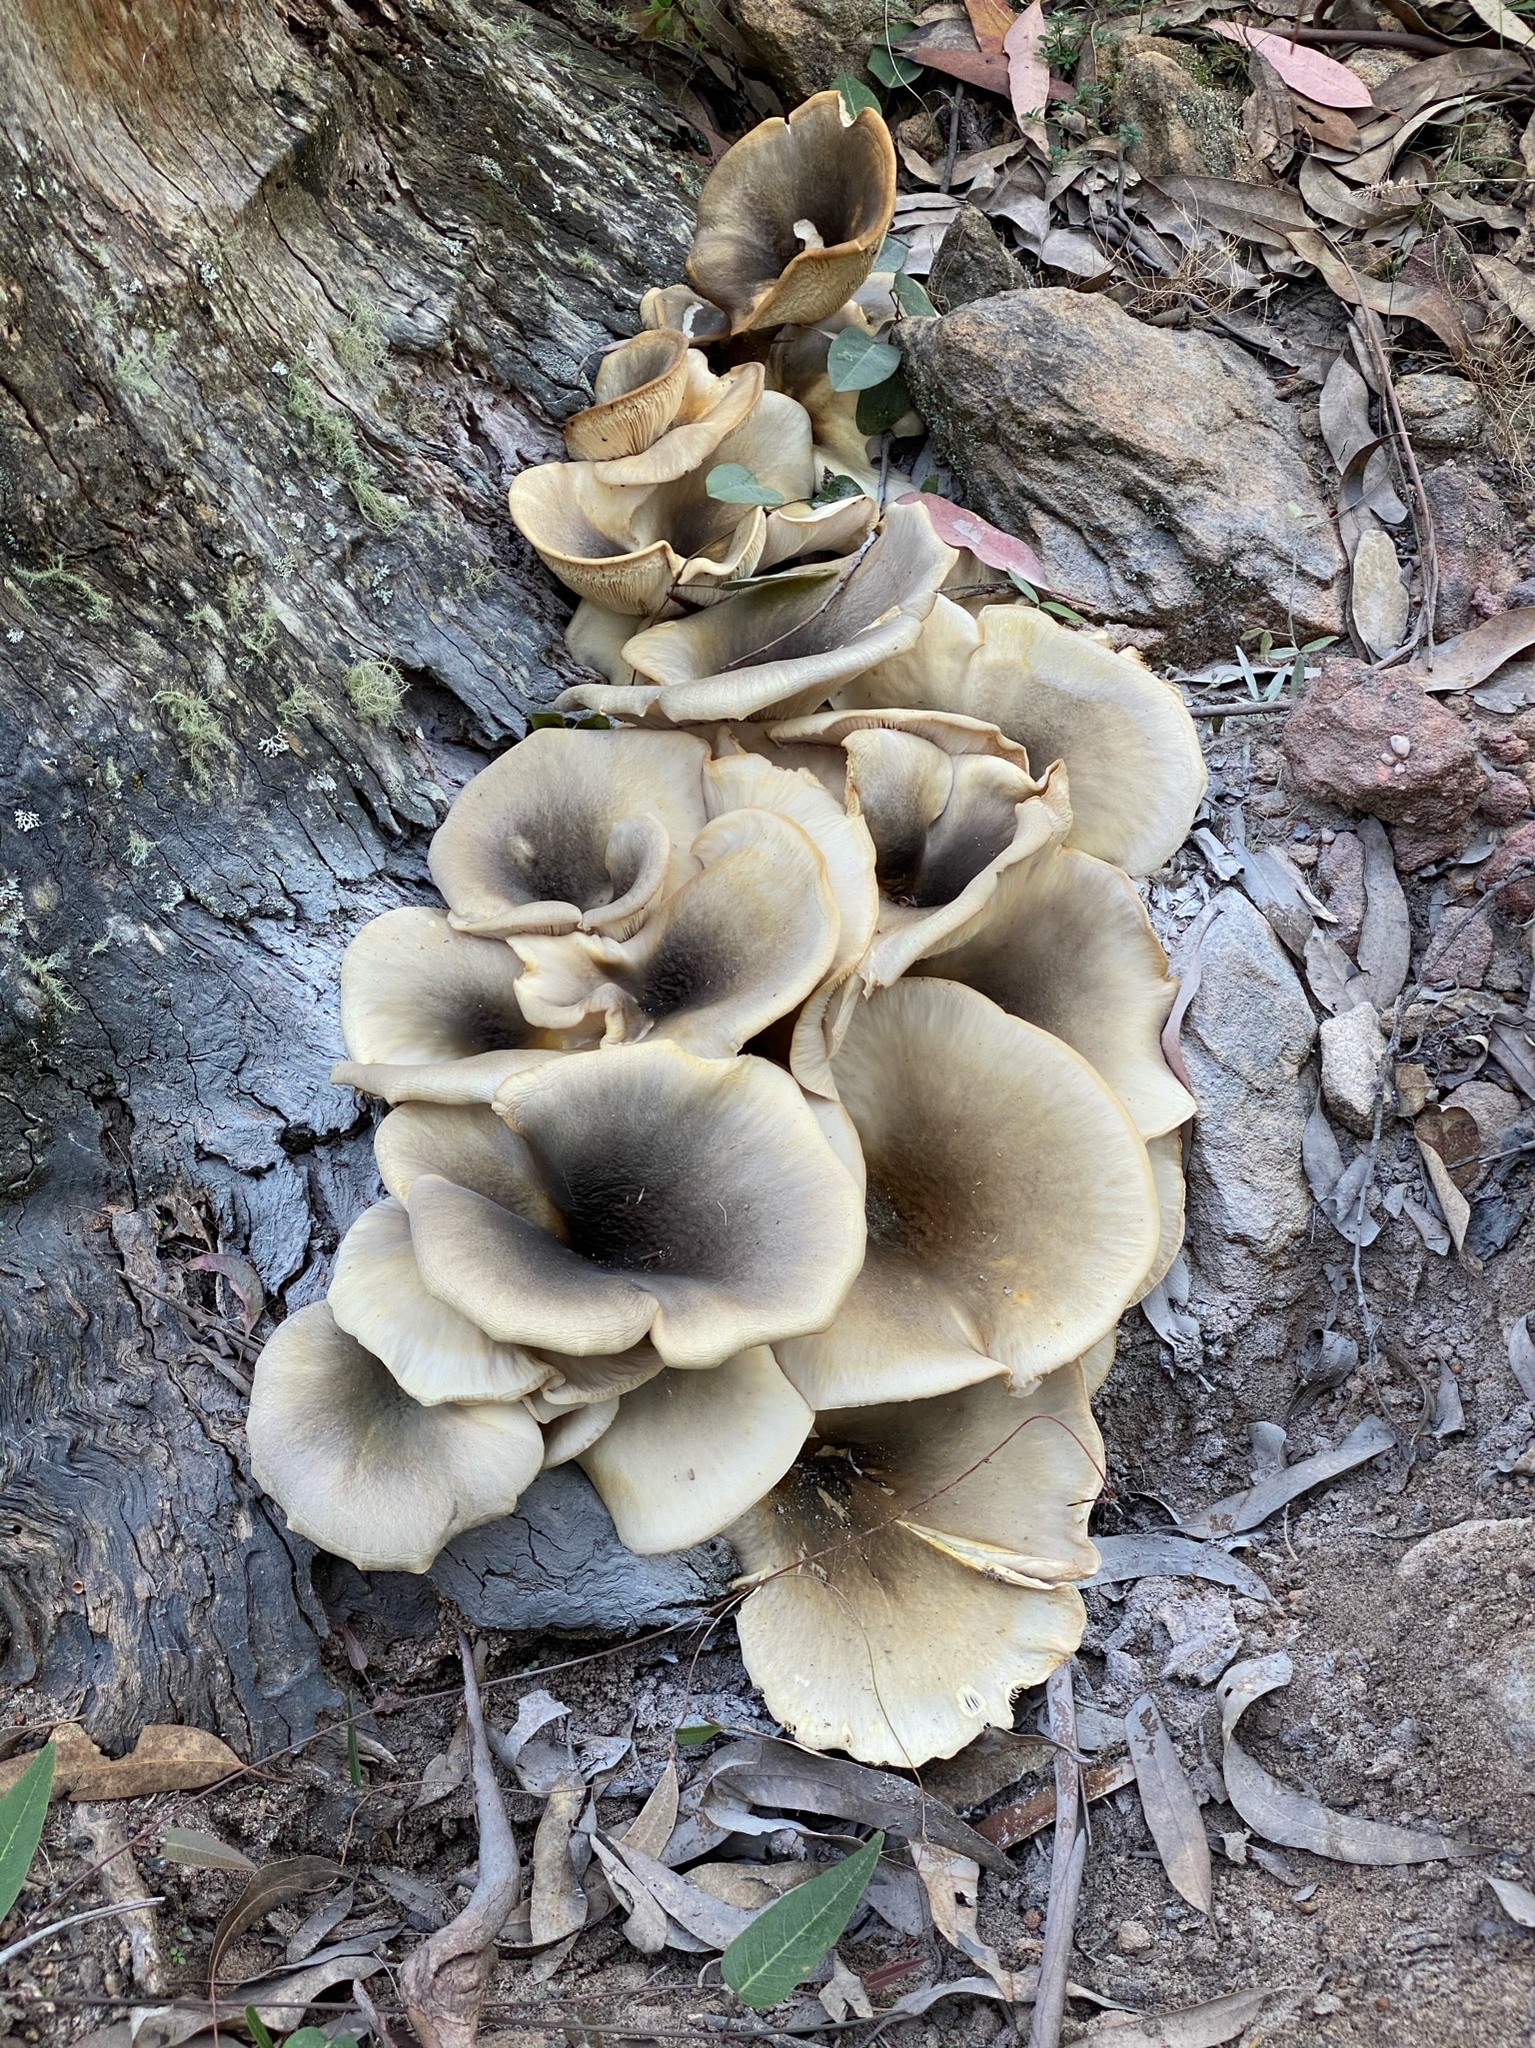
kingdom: Fungi
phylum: Basidiomycota
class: Agaricomycetes
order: Agaricales
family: Omphalotaceae
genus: Omphalotus
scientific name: Omphalotus nidiformis
